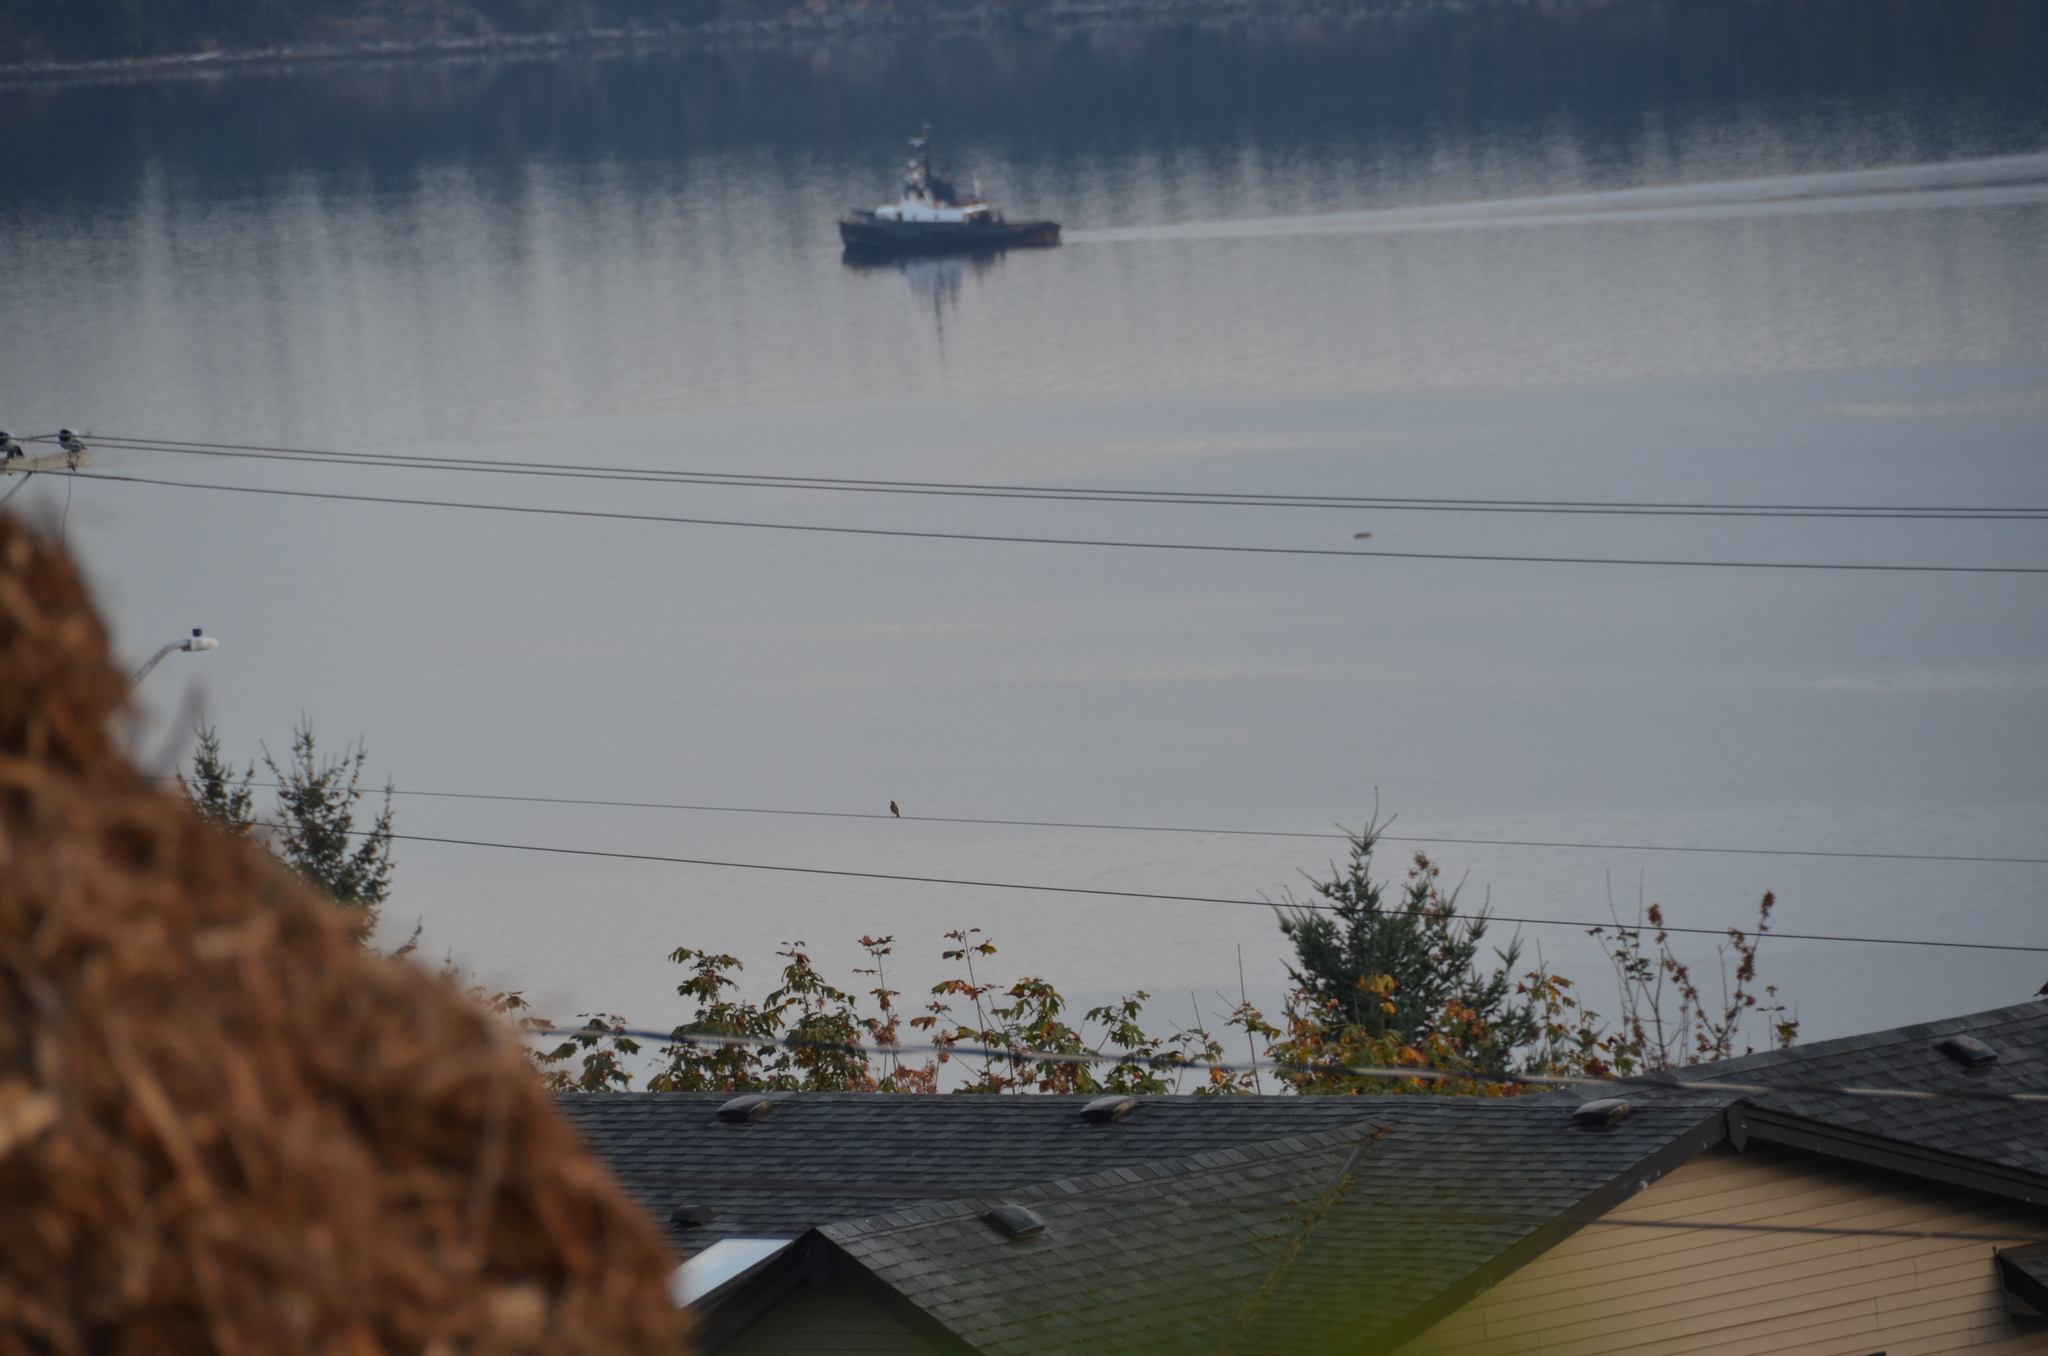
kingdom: Animalia
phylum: Chordata
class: Aves
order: Passeriformes
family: Turdidae
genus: Turdus
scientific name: Turdus migratorius
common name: American robin
